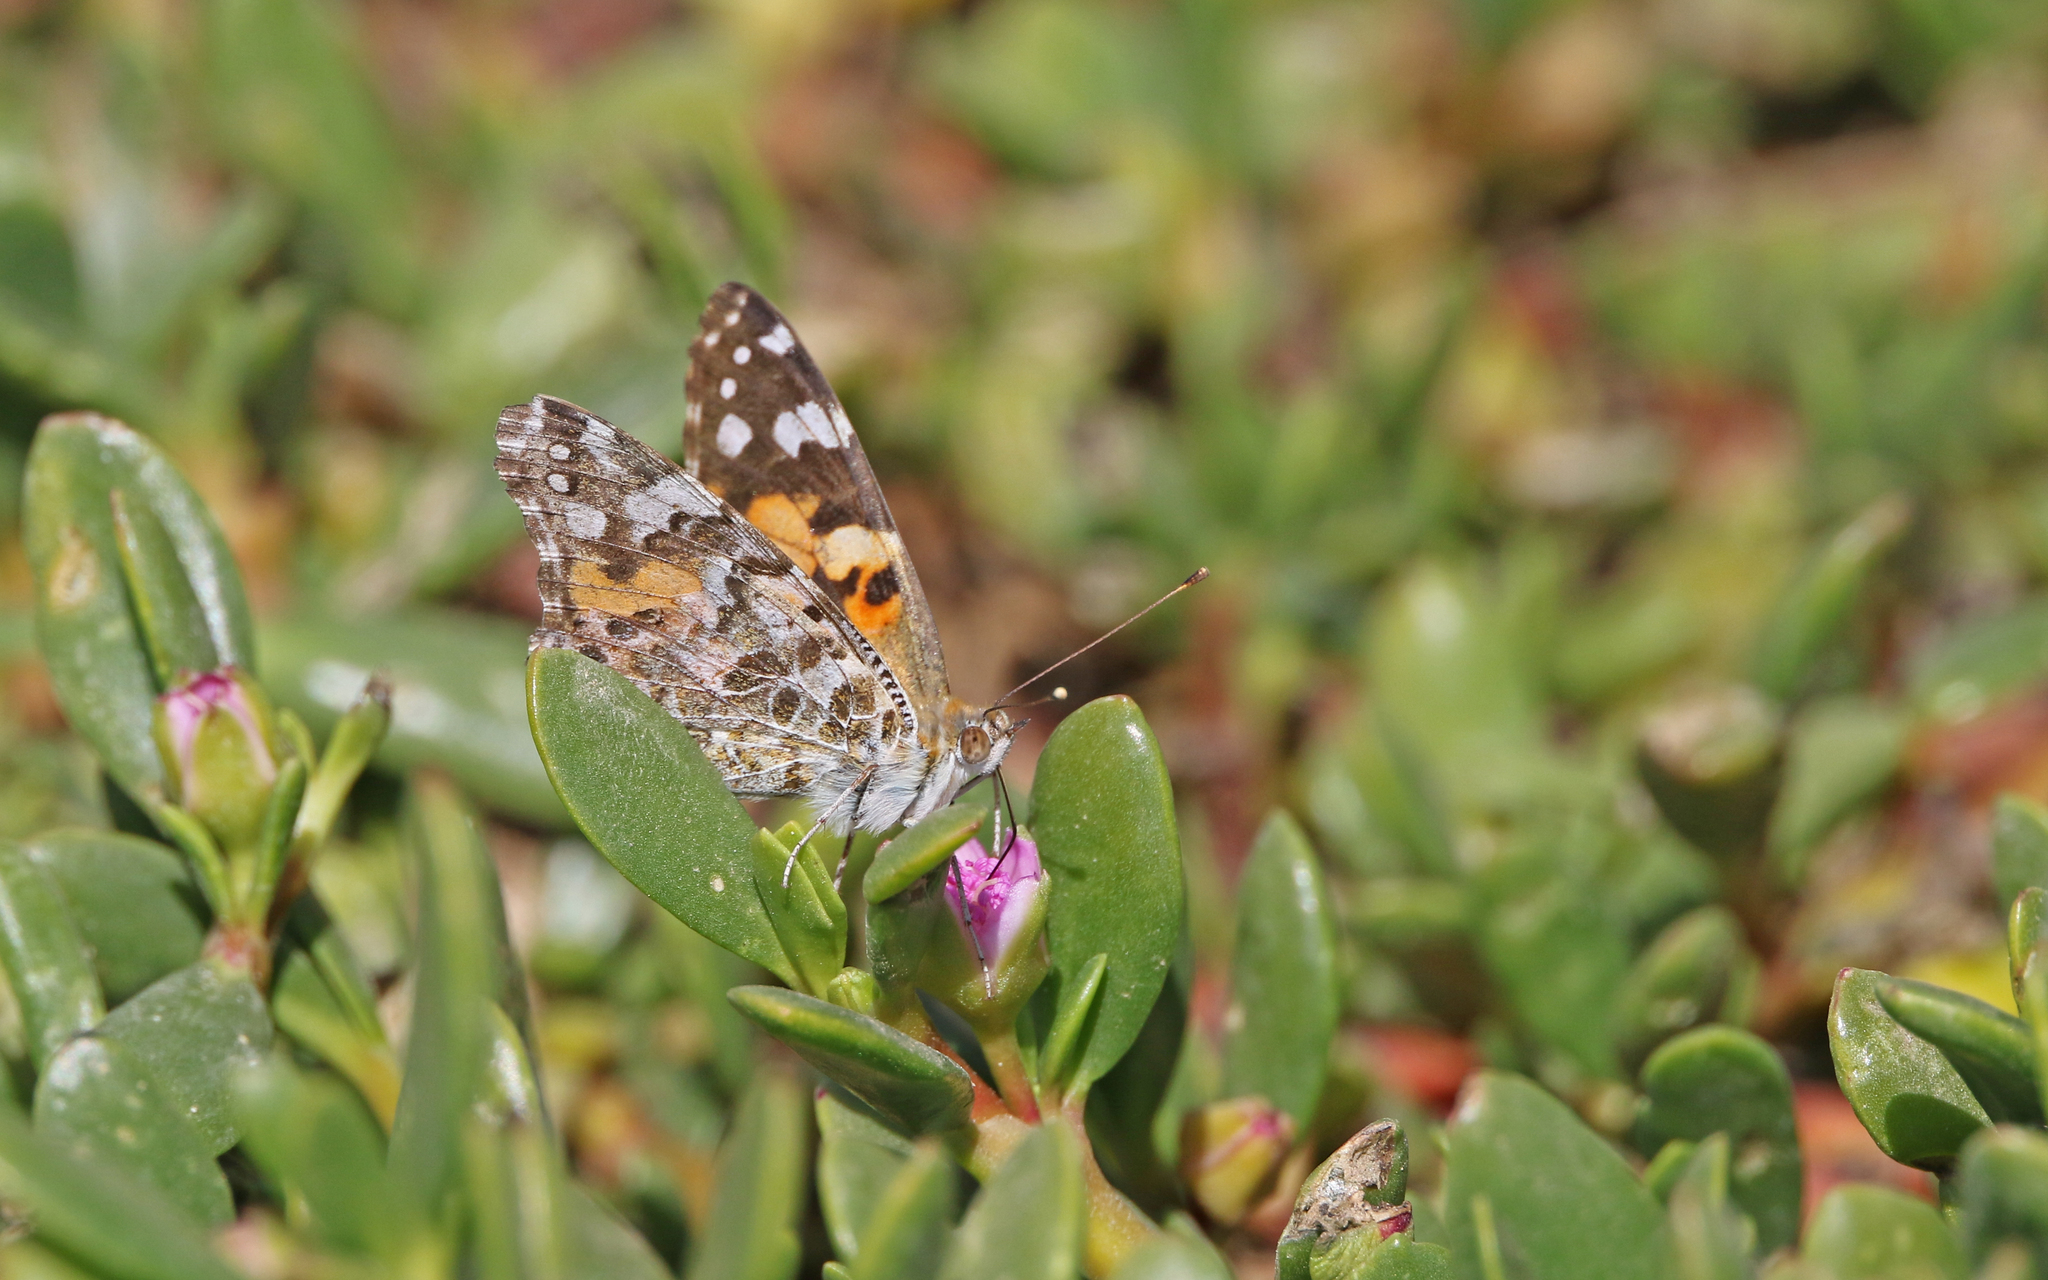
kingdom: Animalia
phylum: Arthropoda
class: Insecta
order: Lepidoptera
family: Nymphalidae
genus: Vanessa
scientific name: Vanessa cardui
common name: Painted lady
